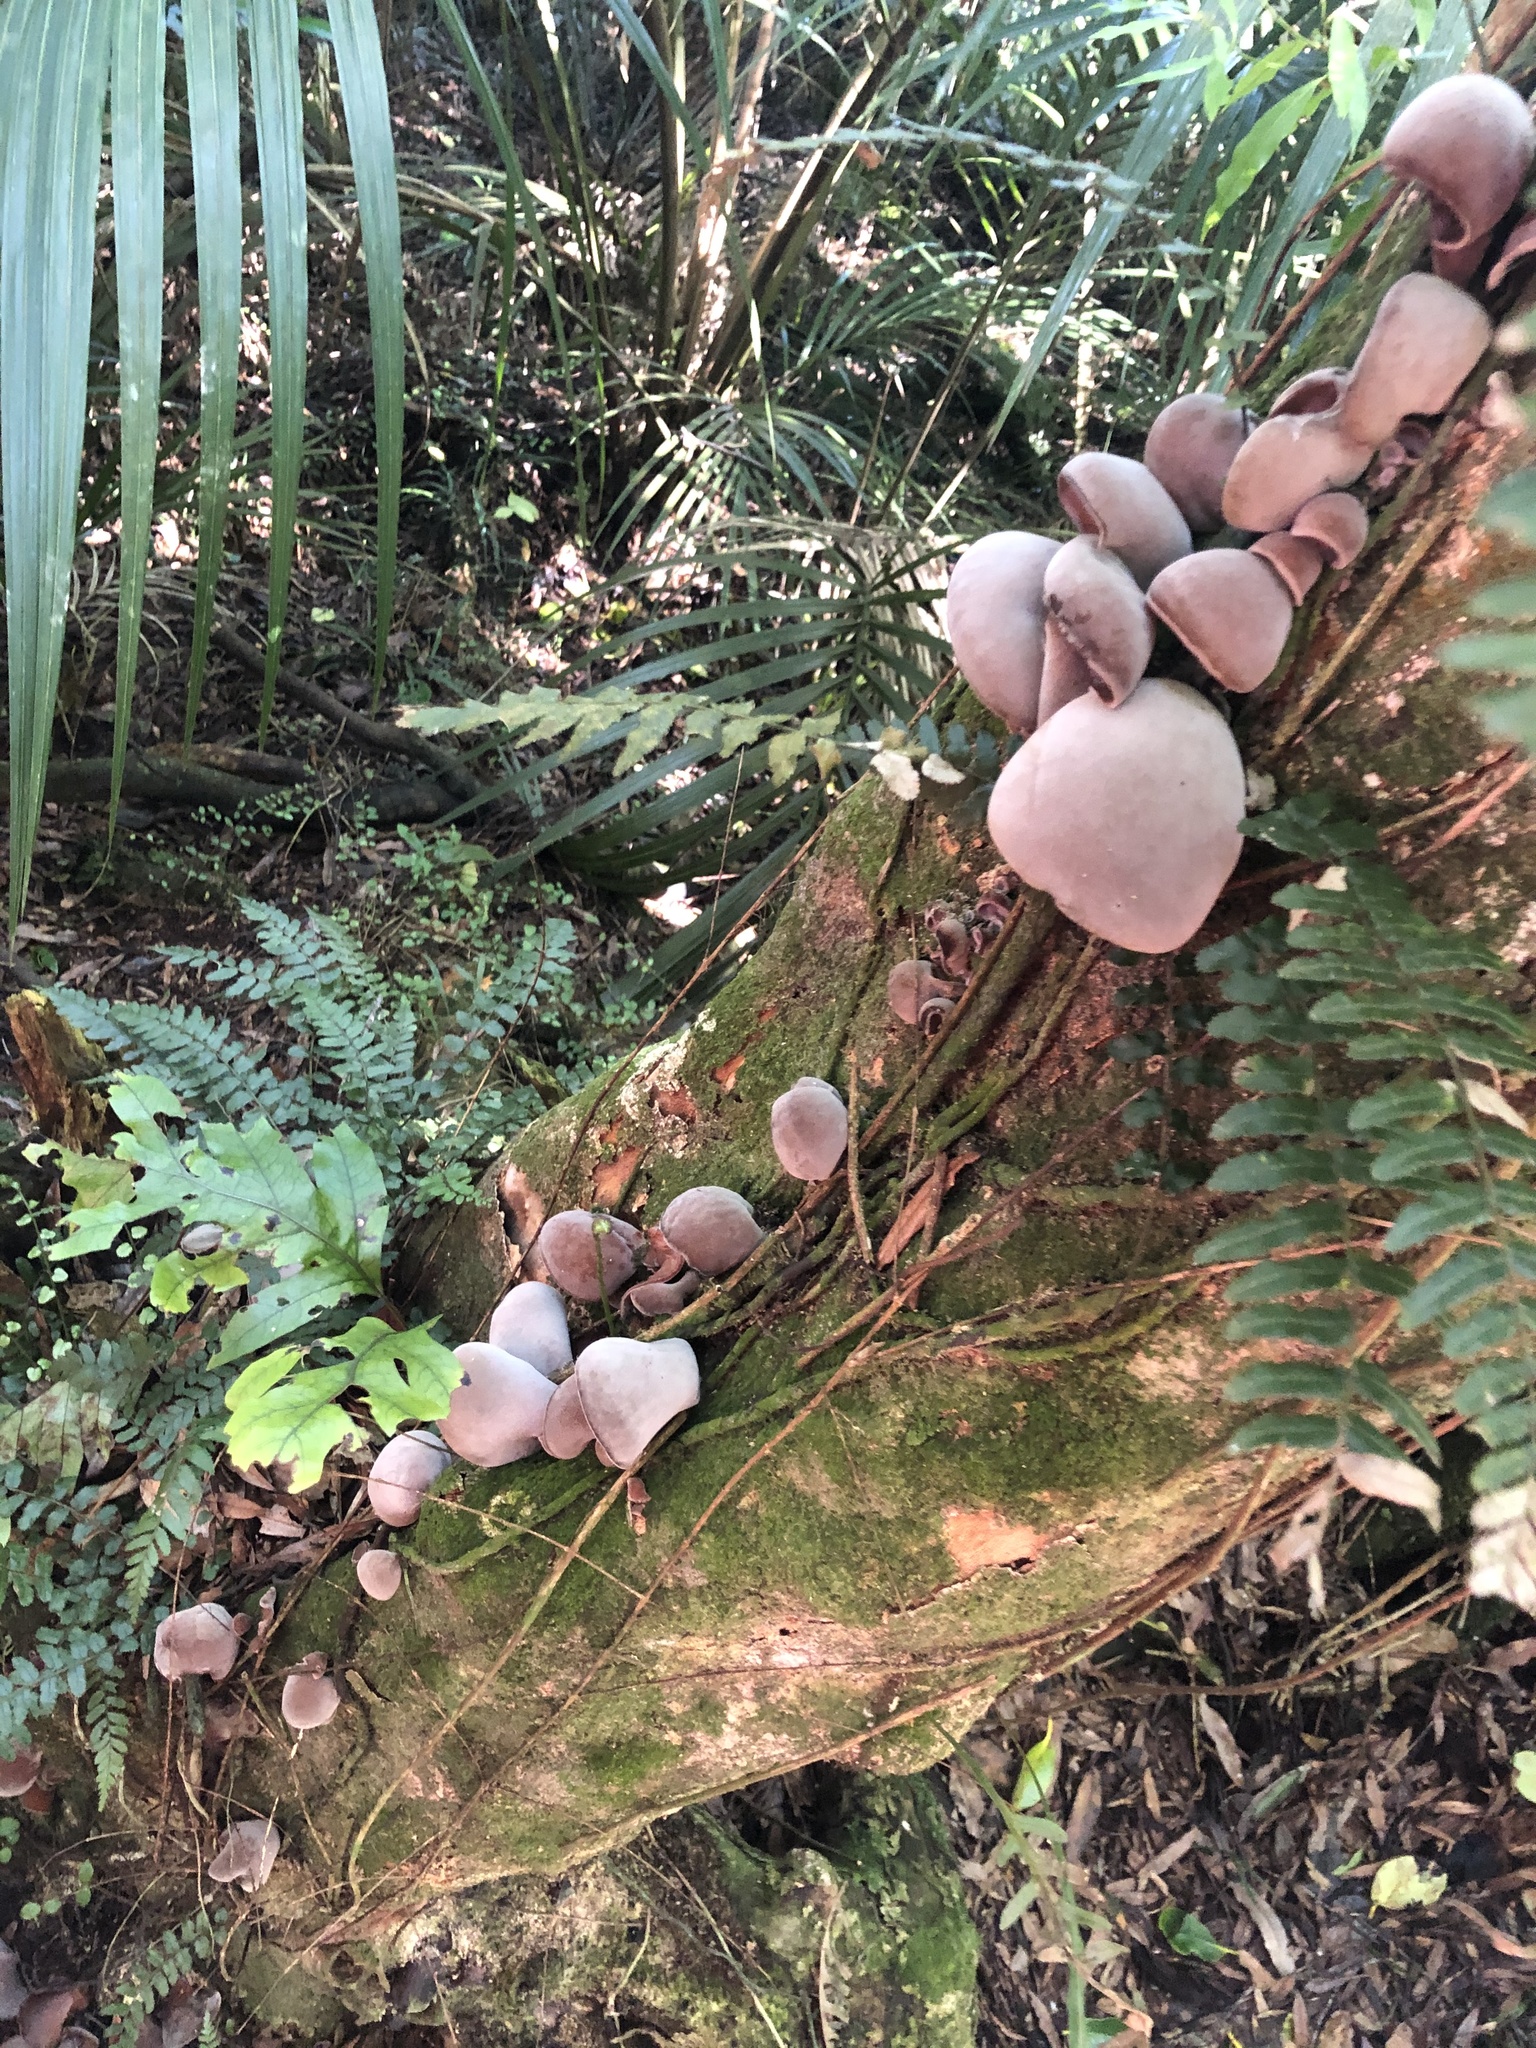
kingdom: Fungi
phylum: Basidiomycota
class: Agaricomycetes
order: Auriculariales
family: Auriculariaceae
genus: Auricularia
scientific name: Auricularia cornea
